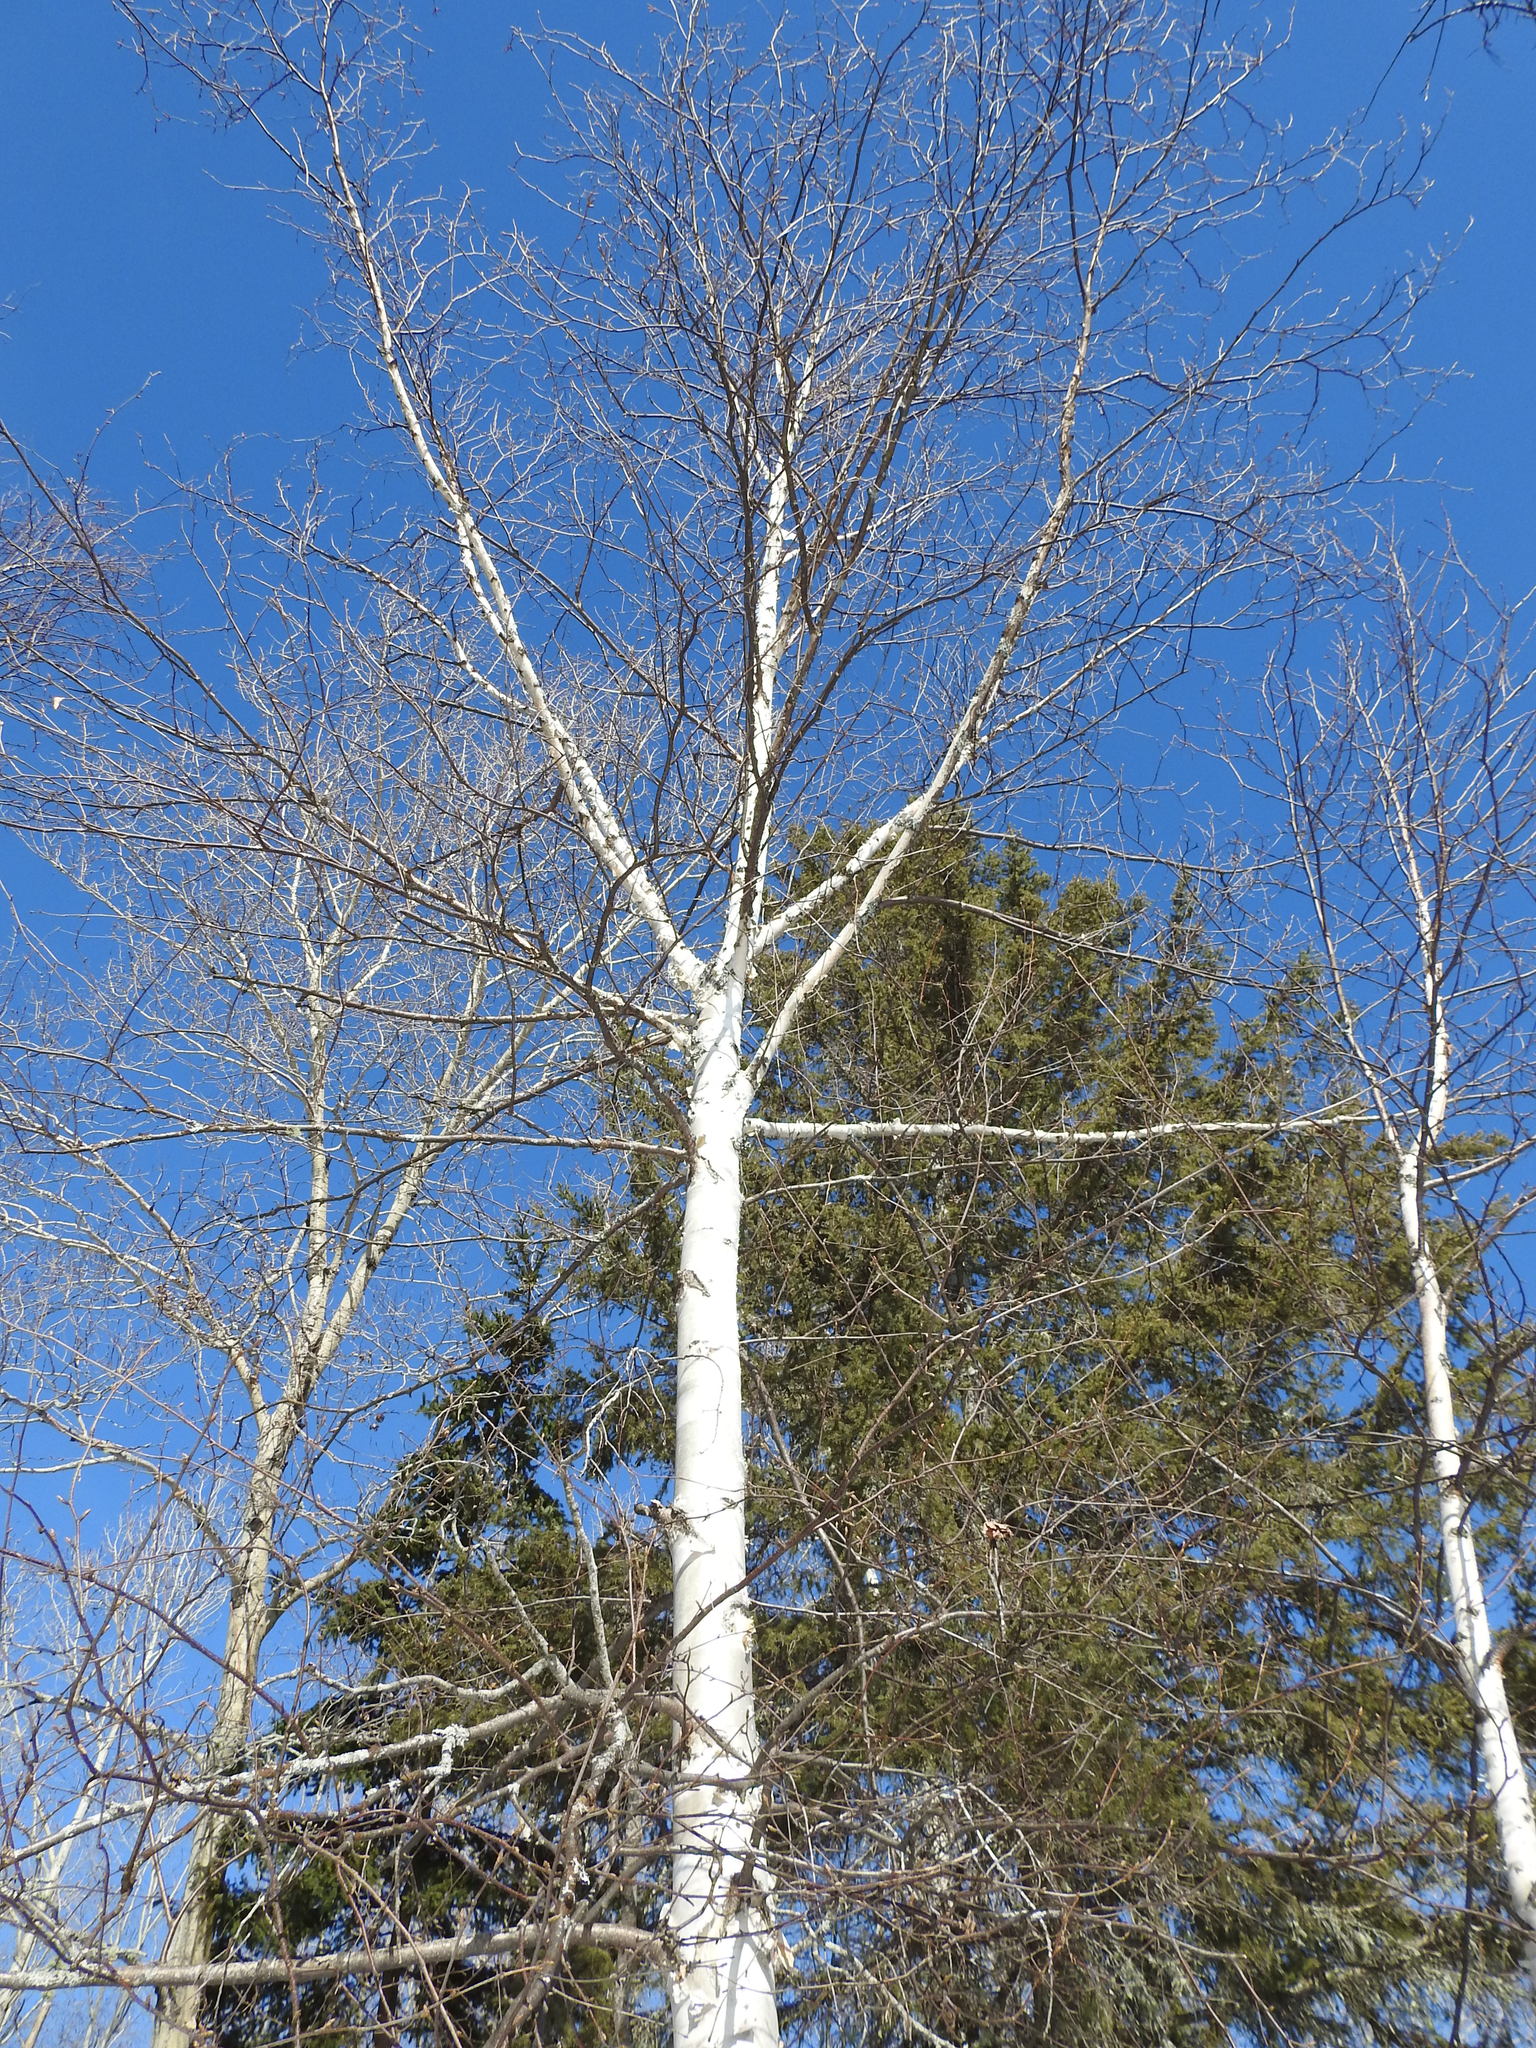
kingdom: Plantae
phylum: Tracheophyta
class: Magnoliopsida
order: Fagales
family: Betulaceae
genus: Betula
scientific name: Betula papyrifera
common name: Paper birch
